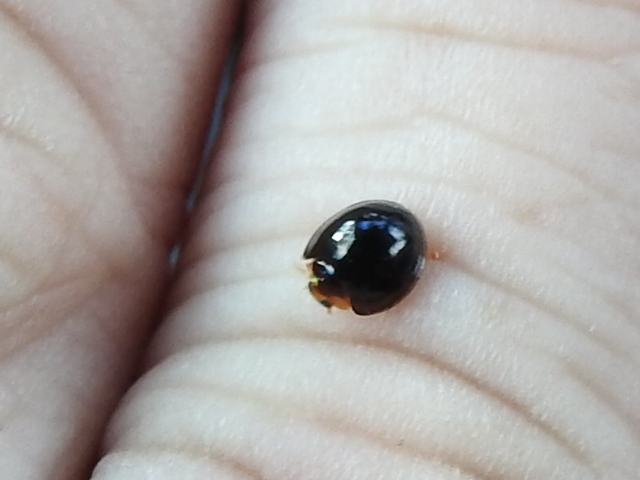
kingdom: Animalia
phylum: Arthropoda
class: Insecta
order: Coleoptera
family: Coccinellidae
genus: Chilocorus
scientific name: Chilocorus nigritus
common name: Ladybird beetle
